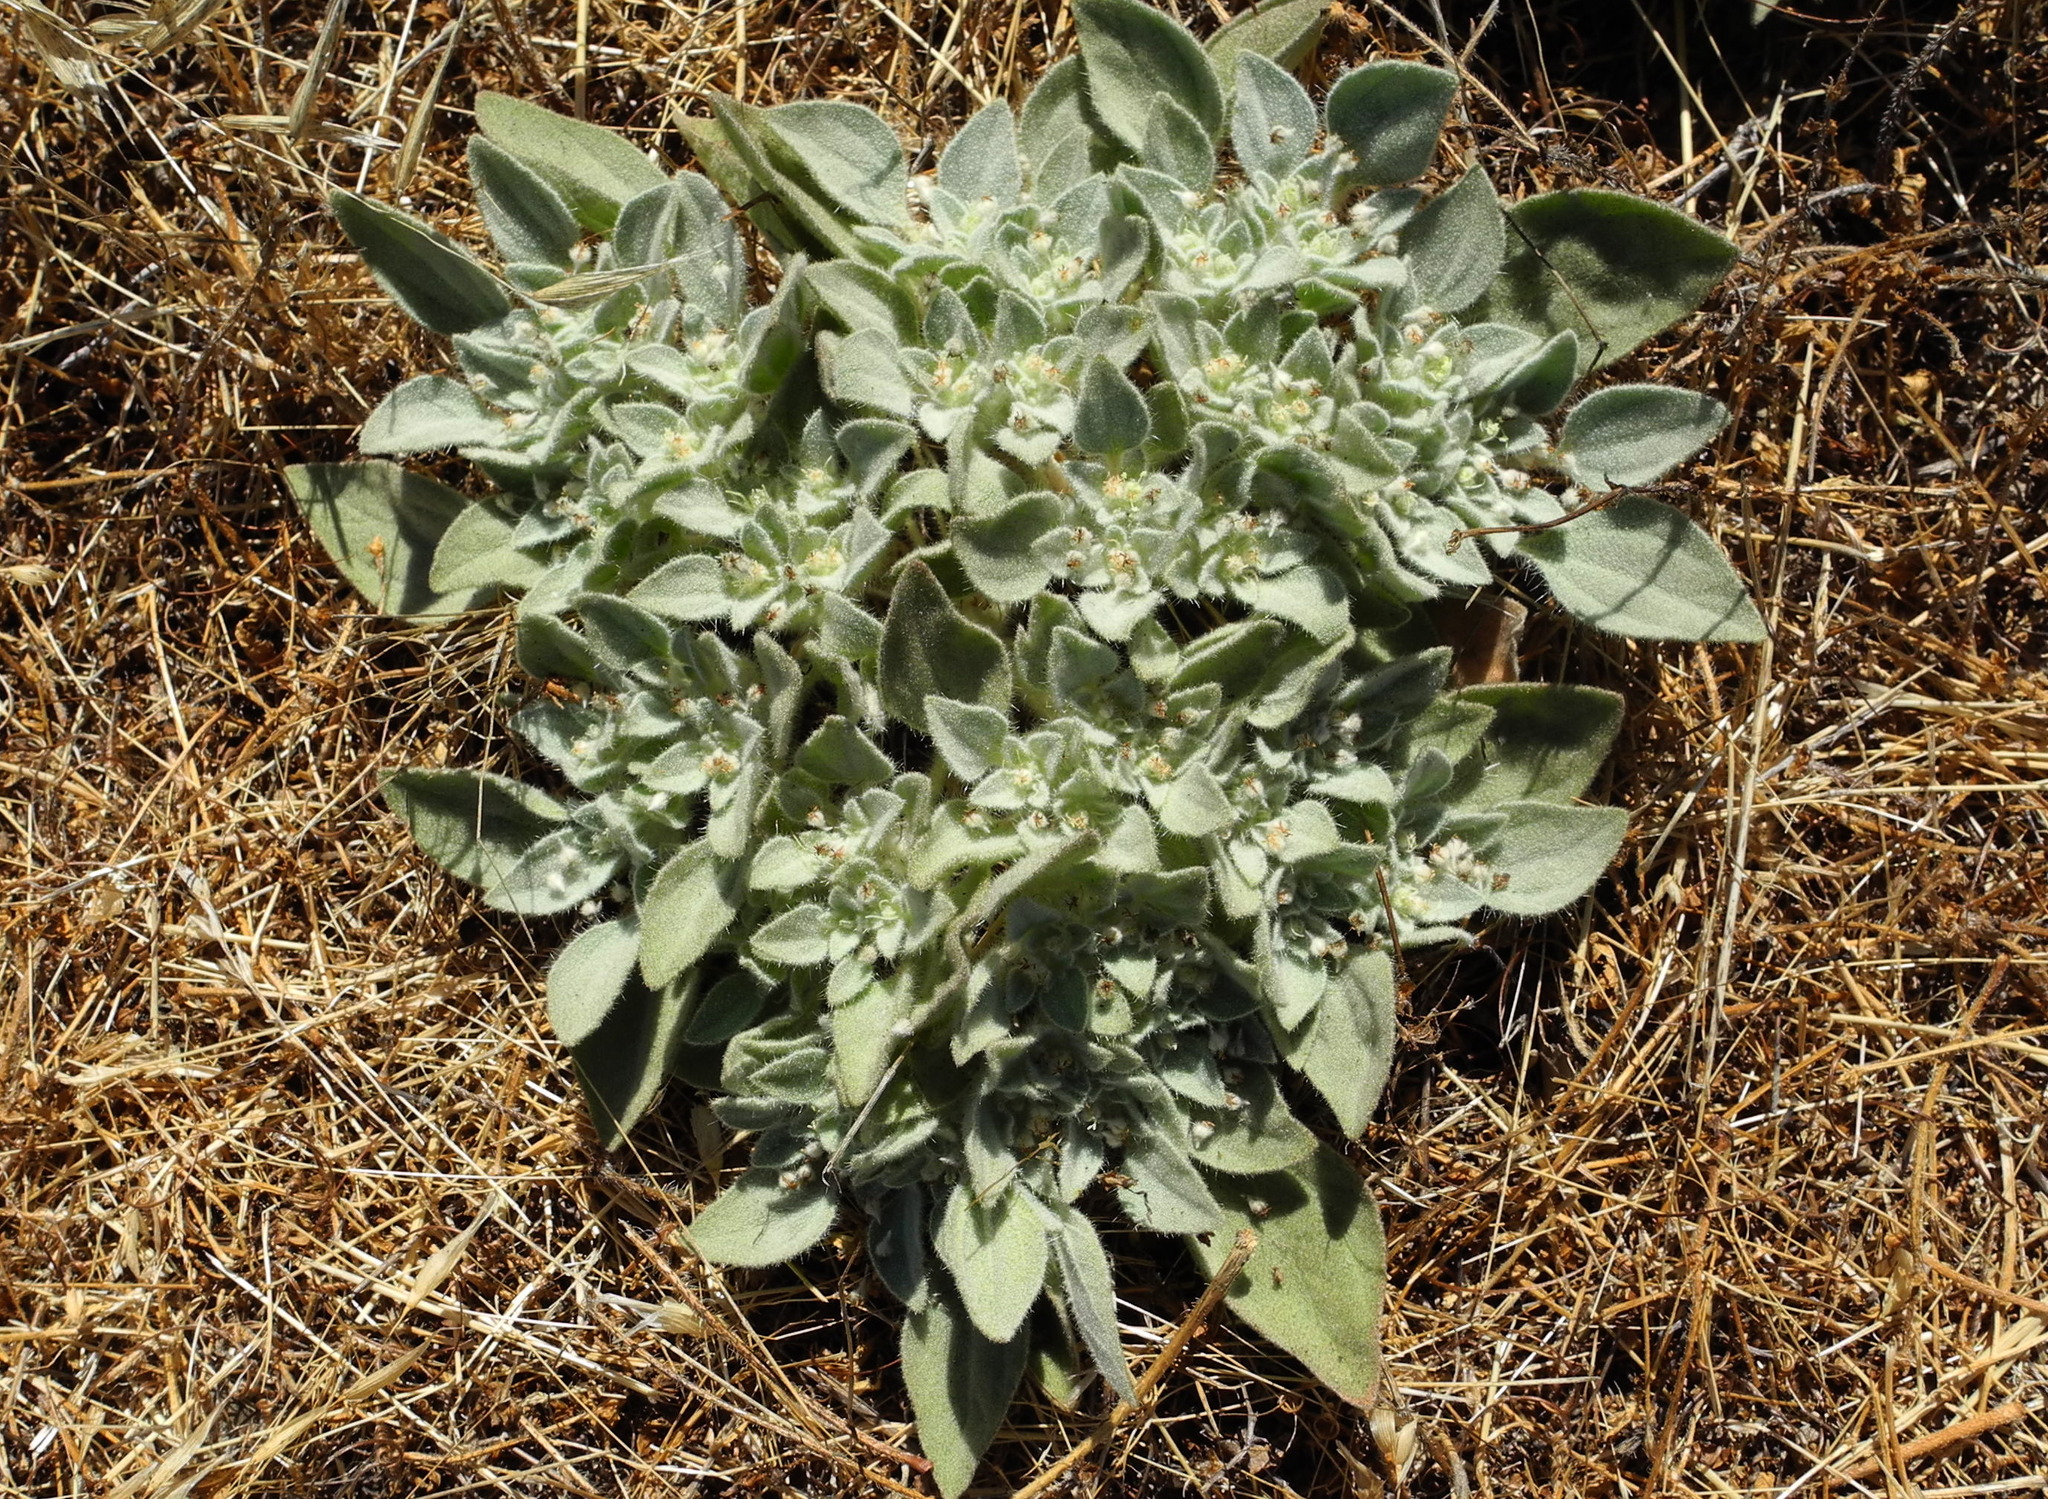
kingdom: Plantae
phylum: Tracheophyta
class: Magnoliopsida
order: Malpighiales
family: Euphorbiaceae
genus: Croton
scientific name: Croton setiger
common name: Dove weed
